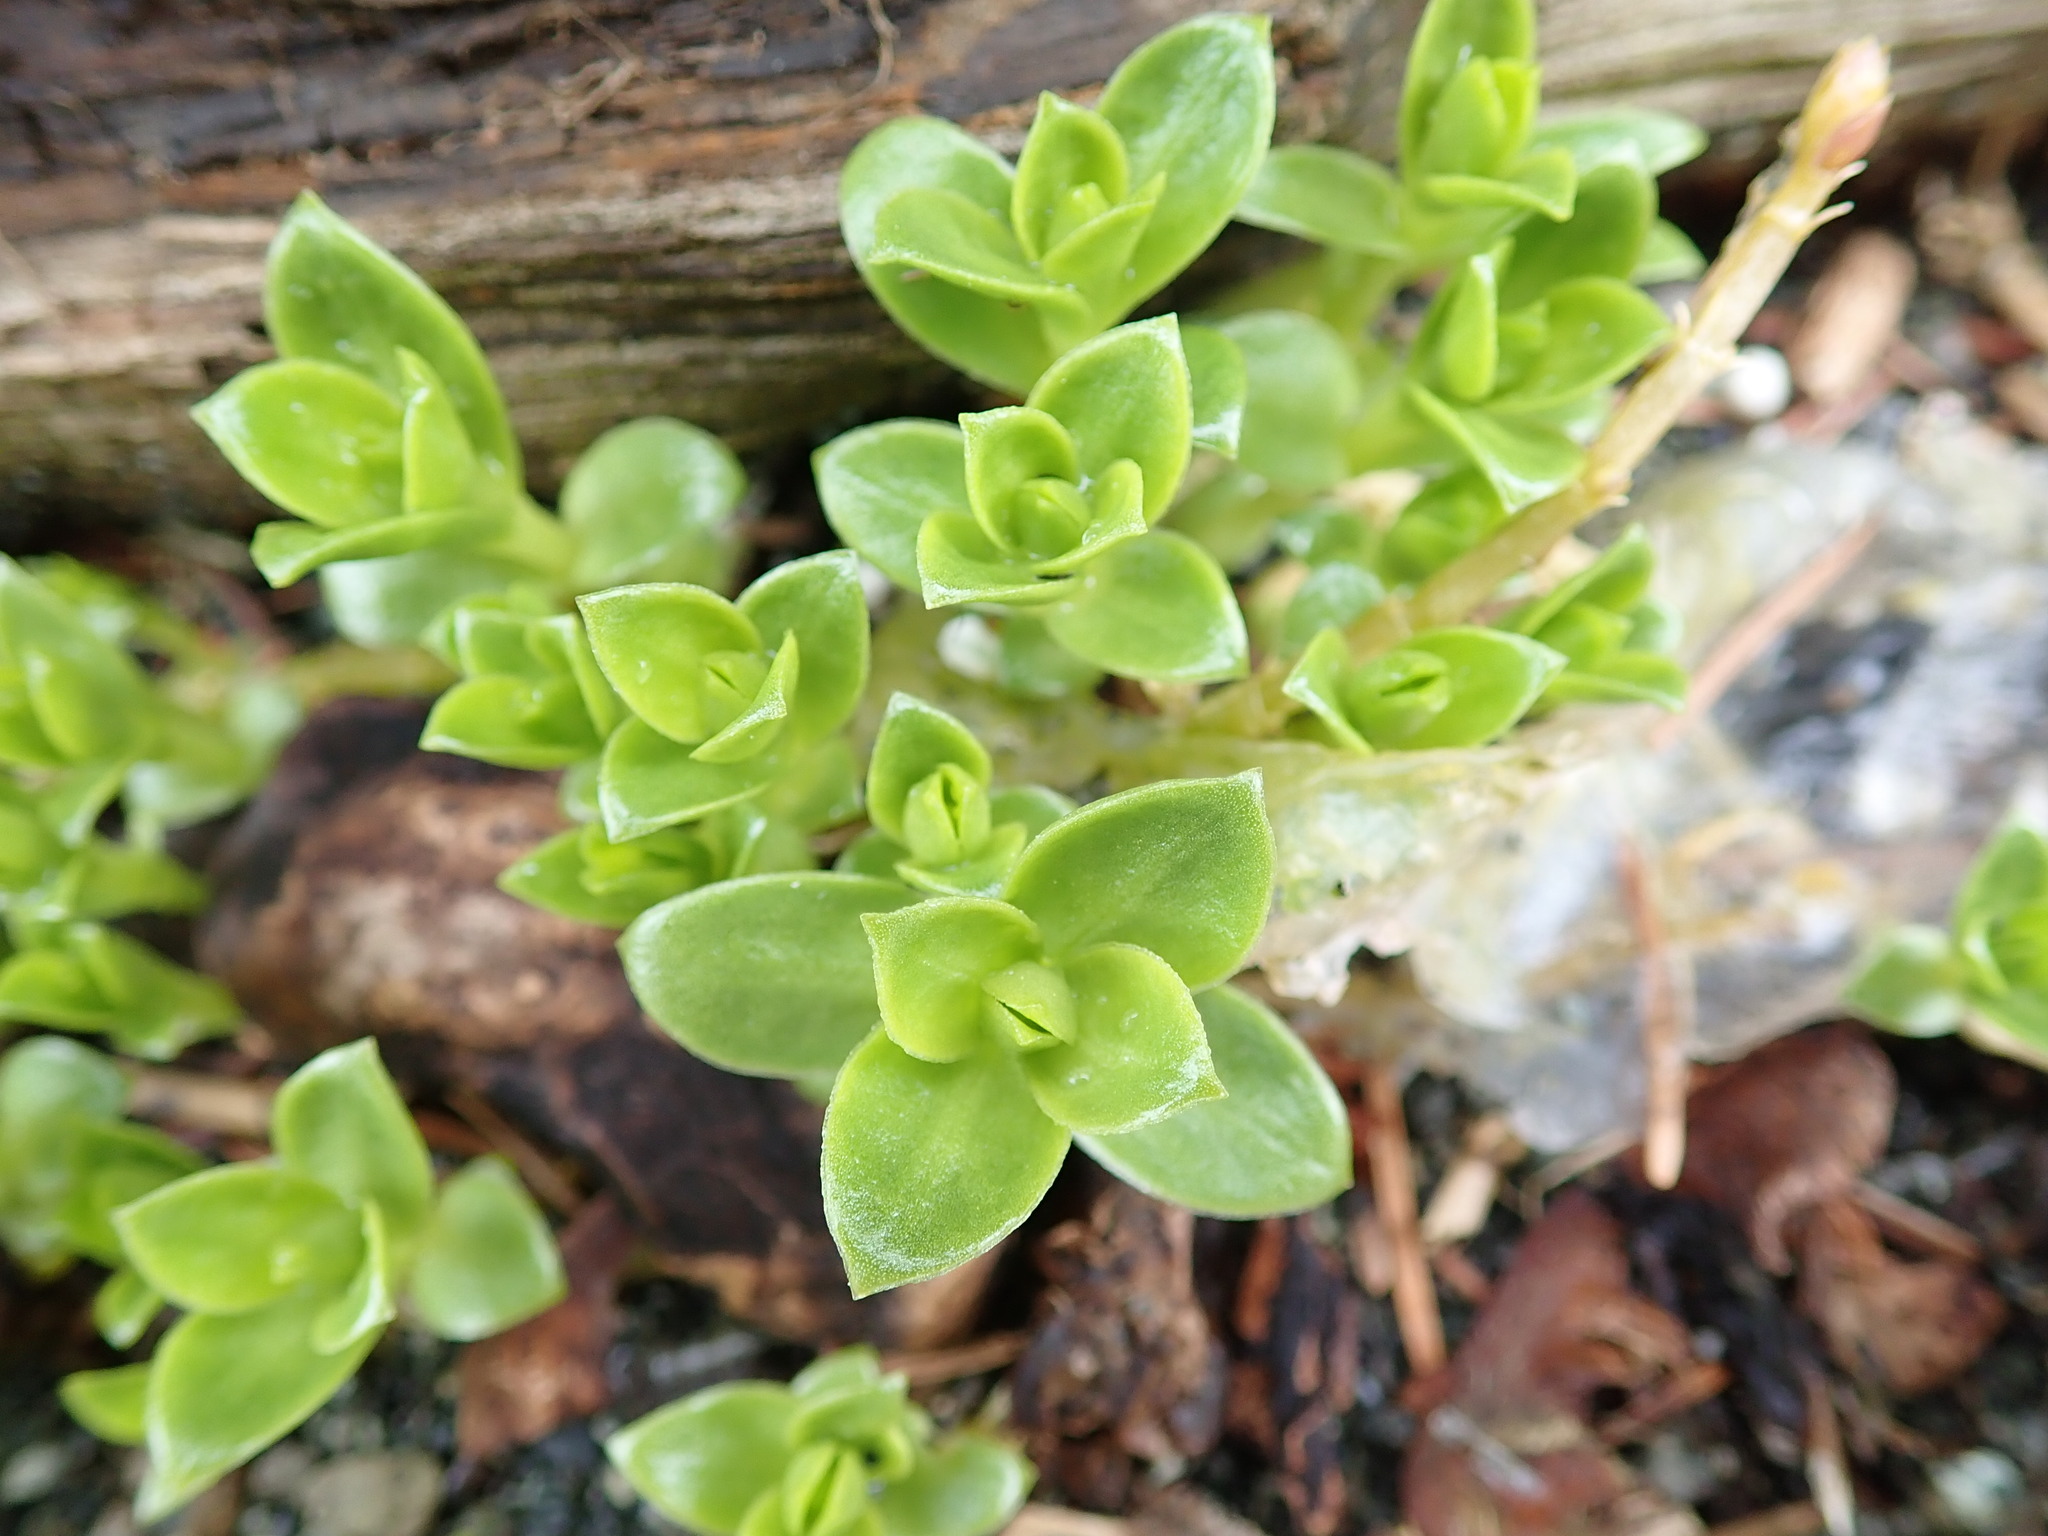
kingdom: Plantae
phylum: Tracheophyta
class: Magnoliopsida
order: Caryophyllales
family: Caryophyllaceae
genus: Honckenya
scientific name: Honckenya peploides
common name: Sea sandwort
